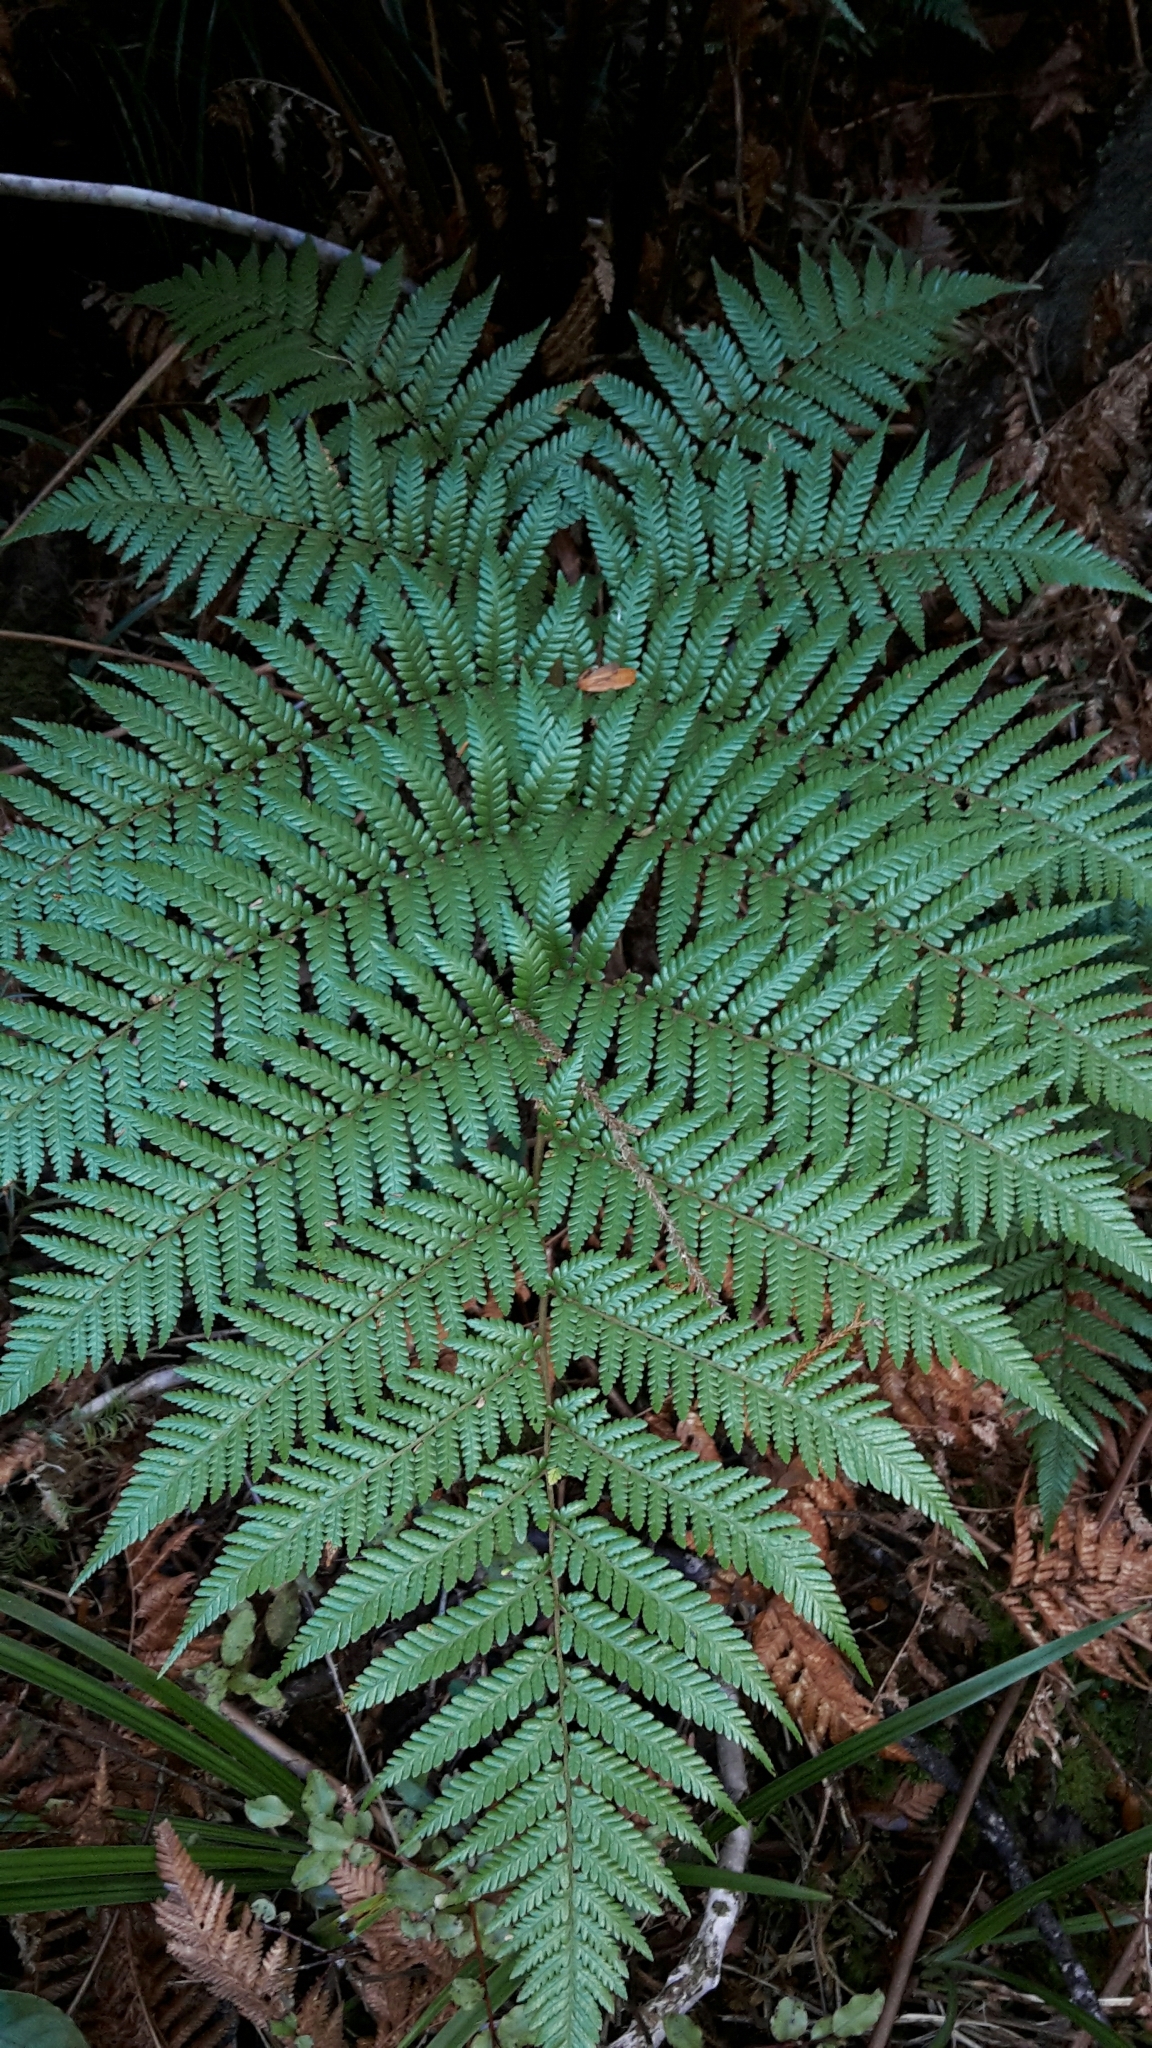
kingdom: Plantae
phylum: Tracheophyta
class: Polypodiopsida
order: Cyatheales
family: Dicksoniaceae
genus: Dicksonia
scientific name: Dicksonia lanata
